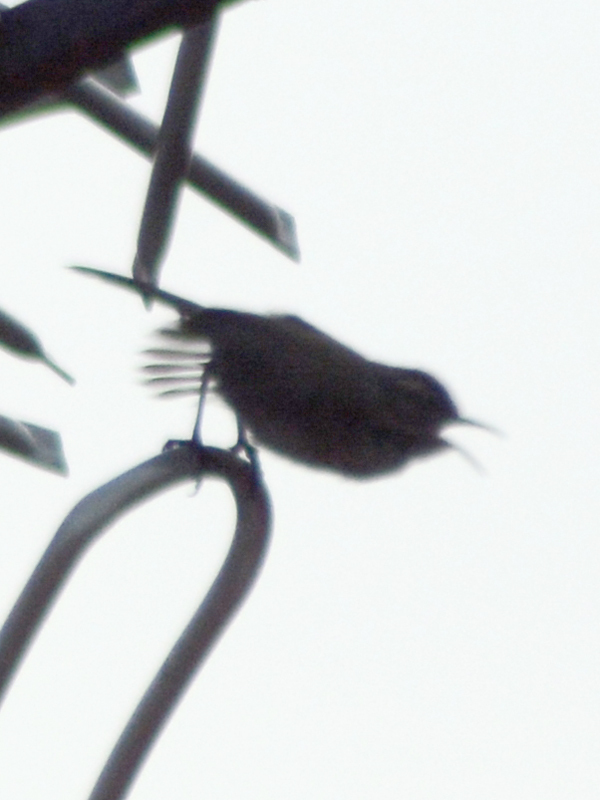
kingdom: Animalia
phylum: Chordata
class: Aves
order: Passeriformes
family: Troglodytidae
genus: Thryomanes
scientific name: Thryomanes bewickii
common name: Bewick's wren
